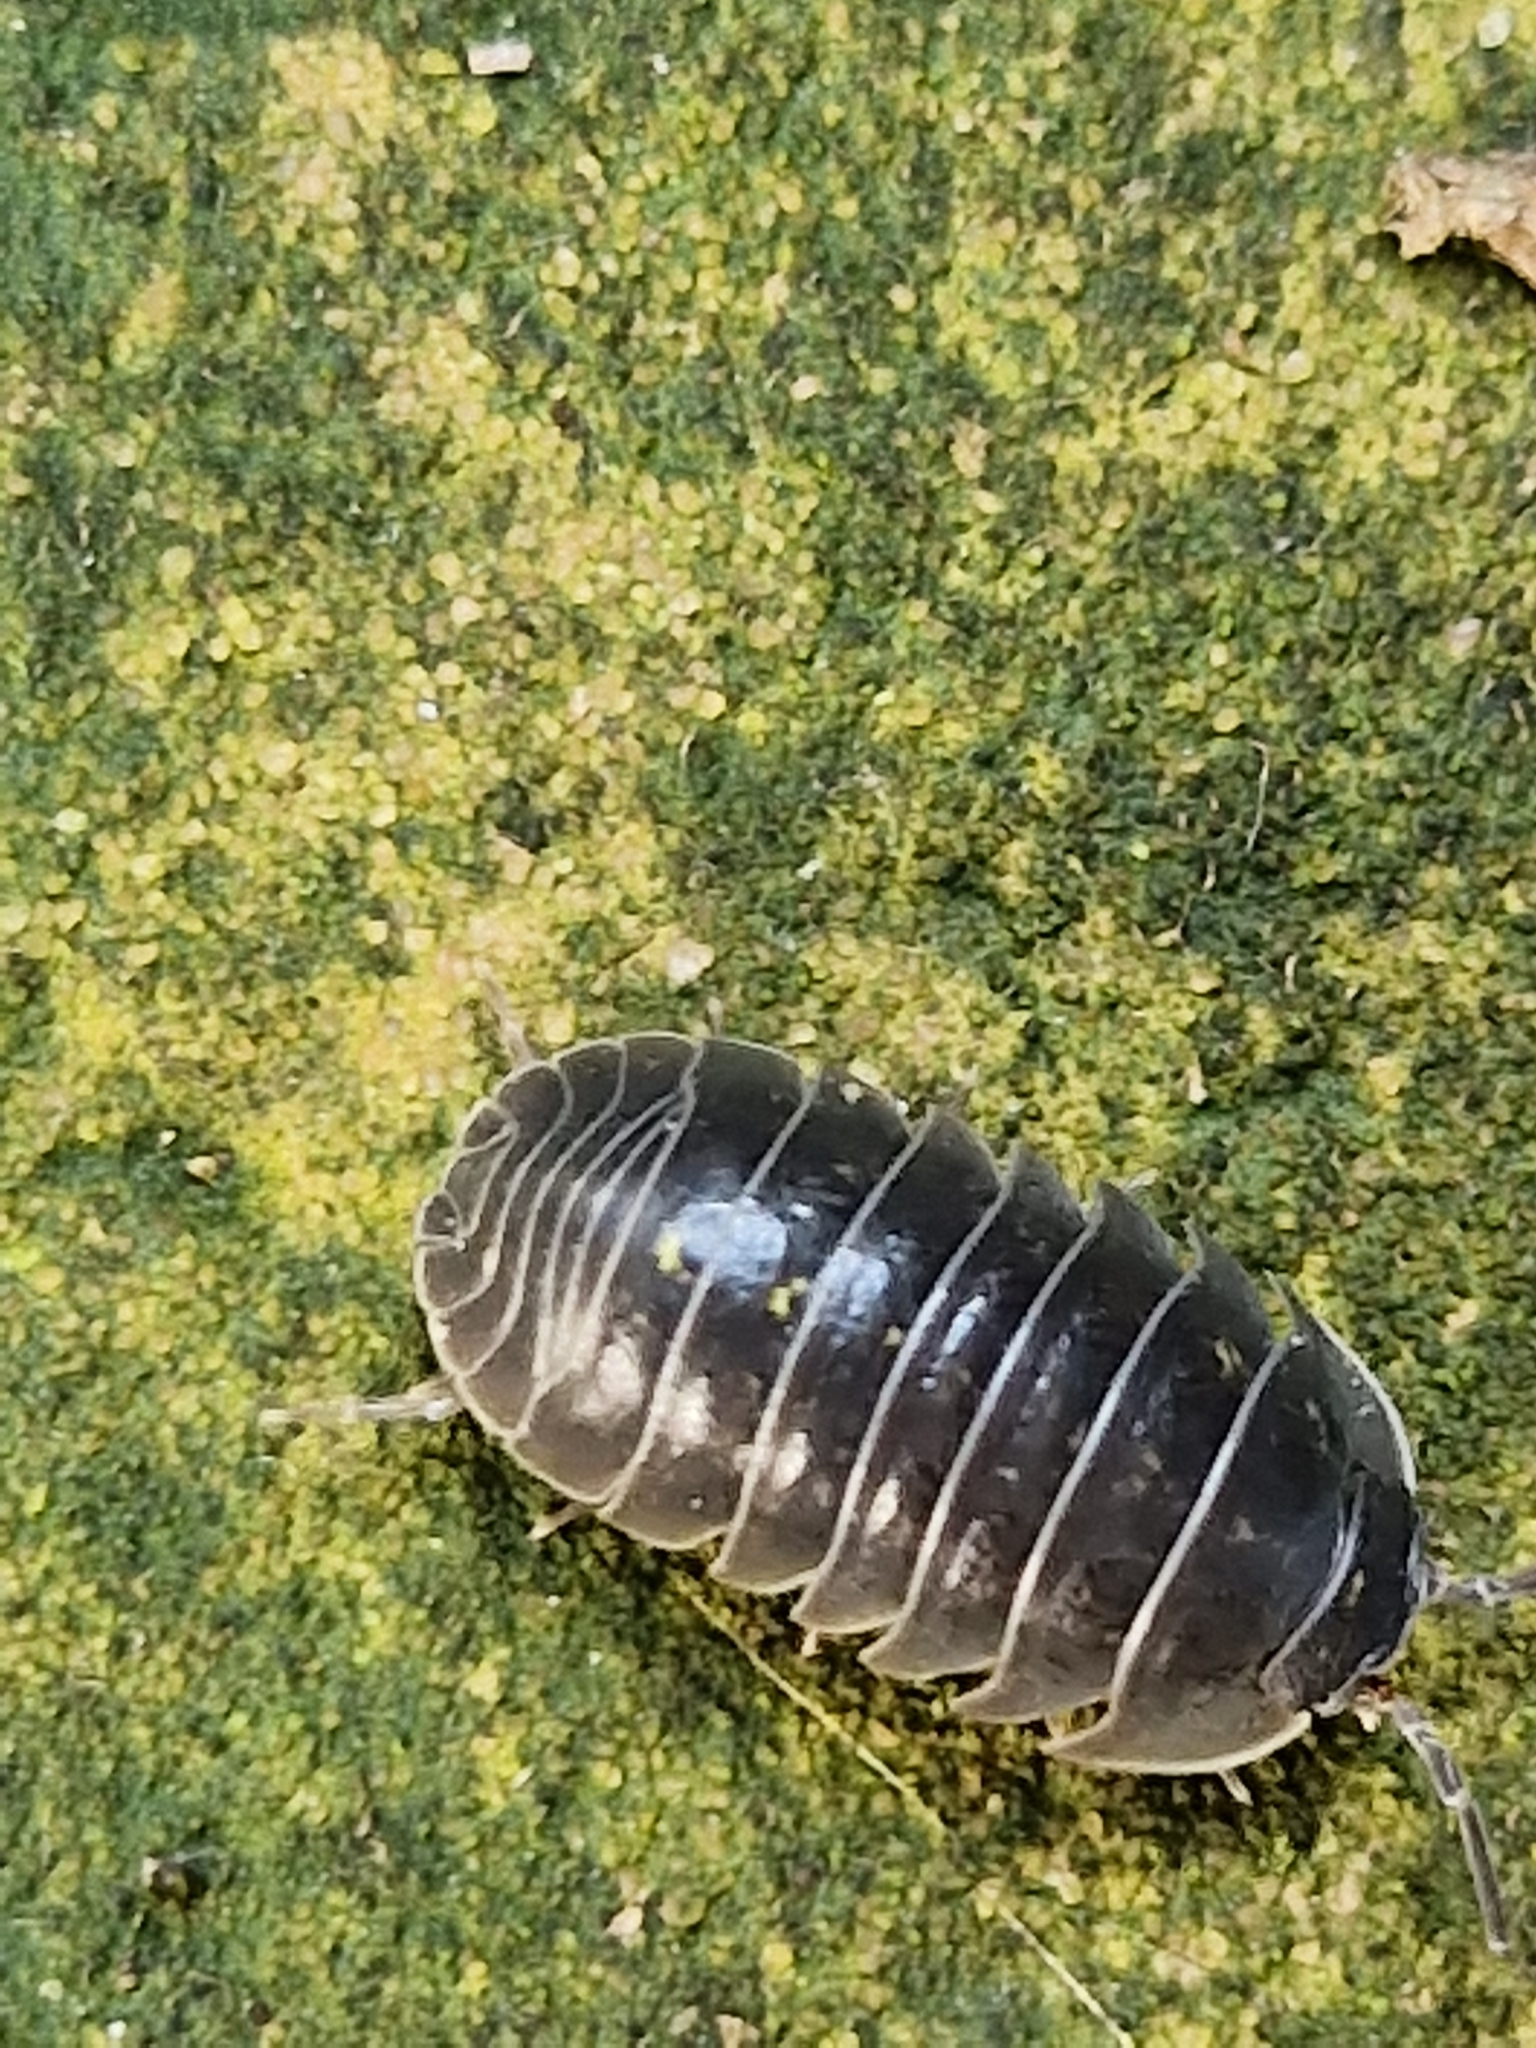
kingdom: Animalia
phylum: Arthropoda
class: Malacostraca
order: Isopoda
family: Armadillidiidae
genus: Armadillidium
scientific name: Armadillidium vulgare
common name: Common pill woodlouse
